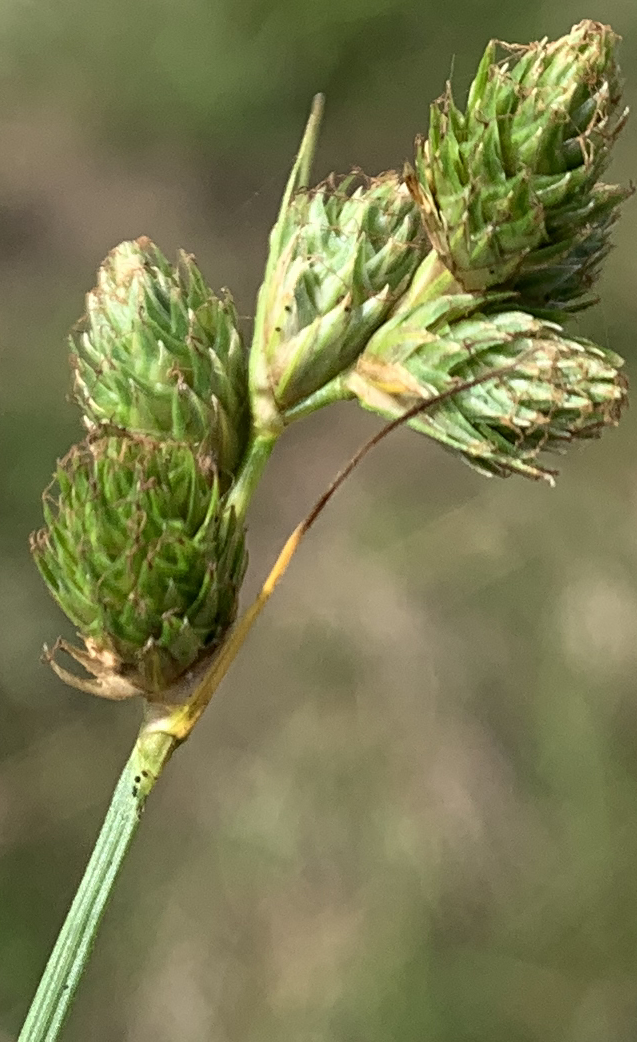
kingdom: Plantae
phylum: Tracheophyta
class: Liliopsida
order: Poales
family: Cyperaceae
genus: Carex
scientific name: Carex longii
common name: Long's sedge
